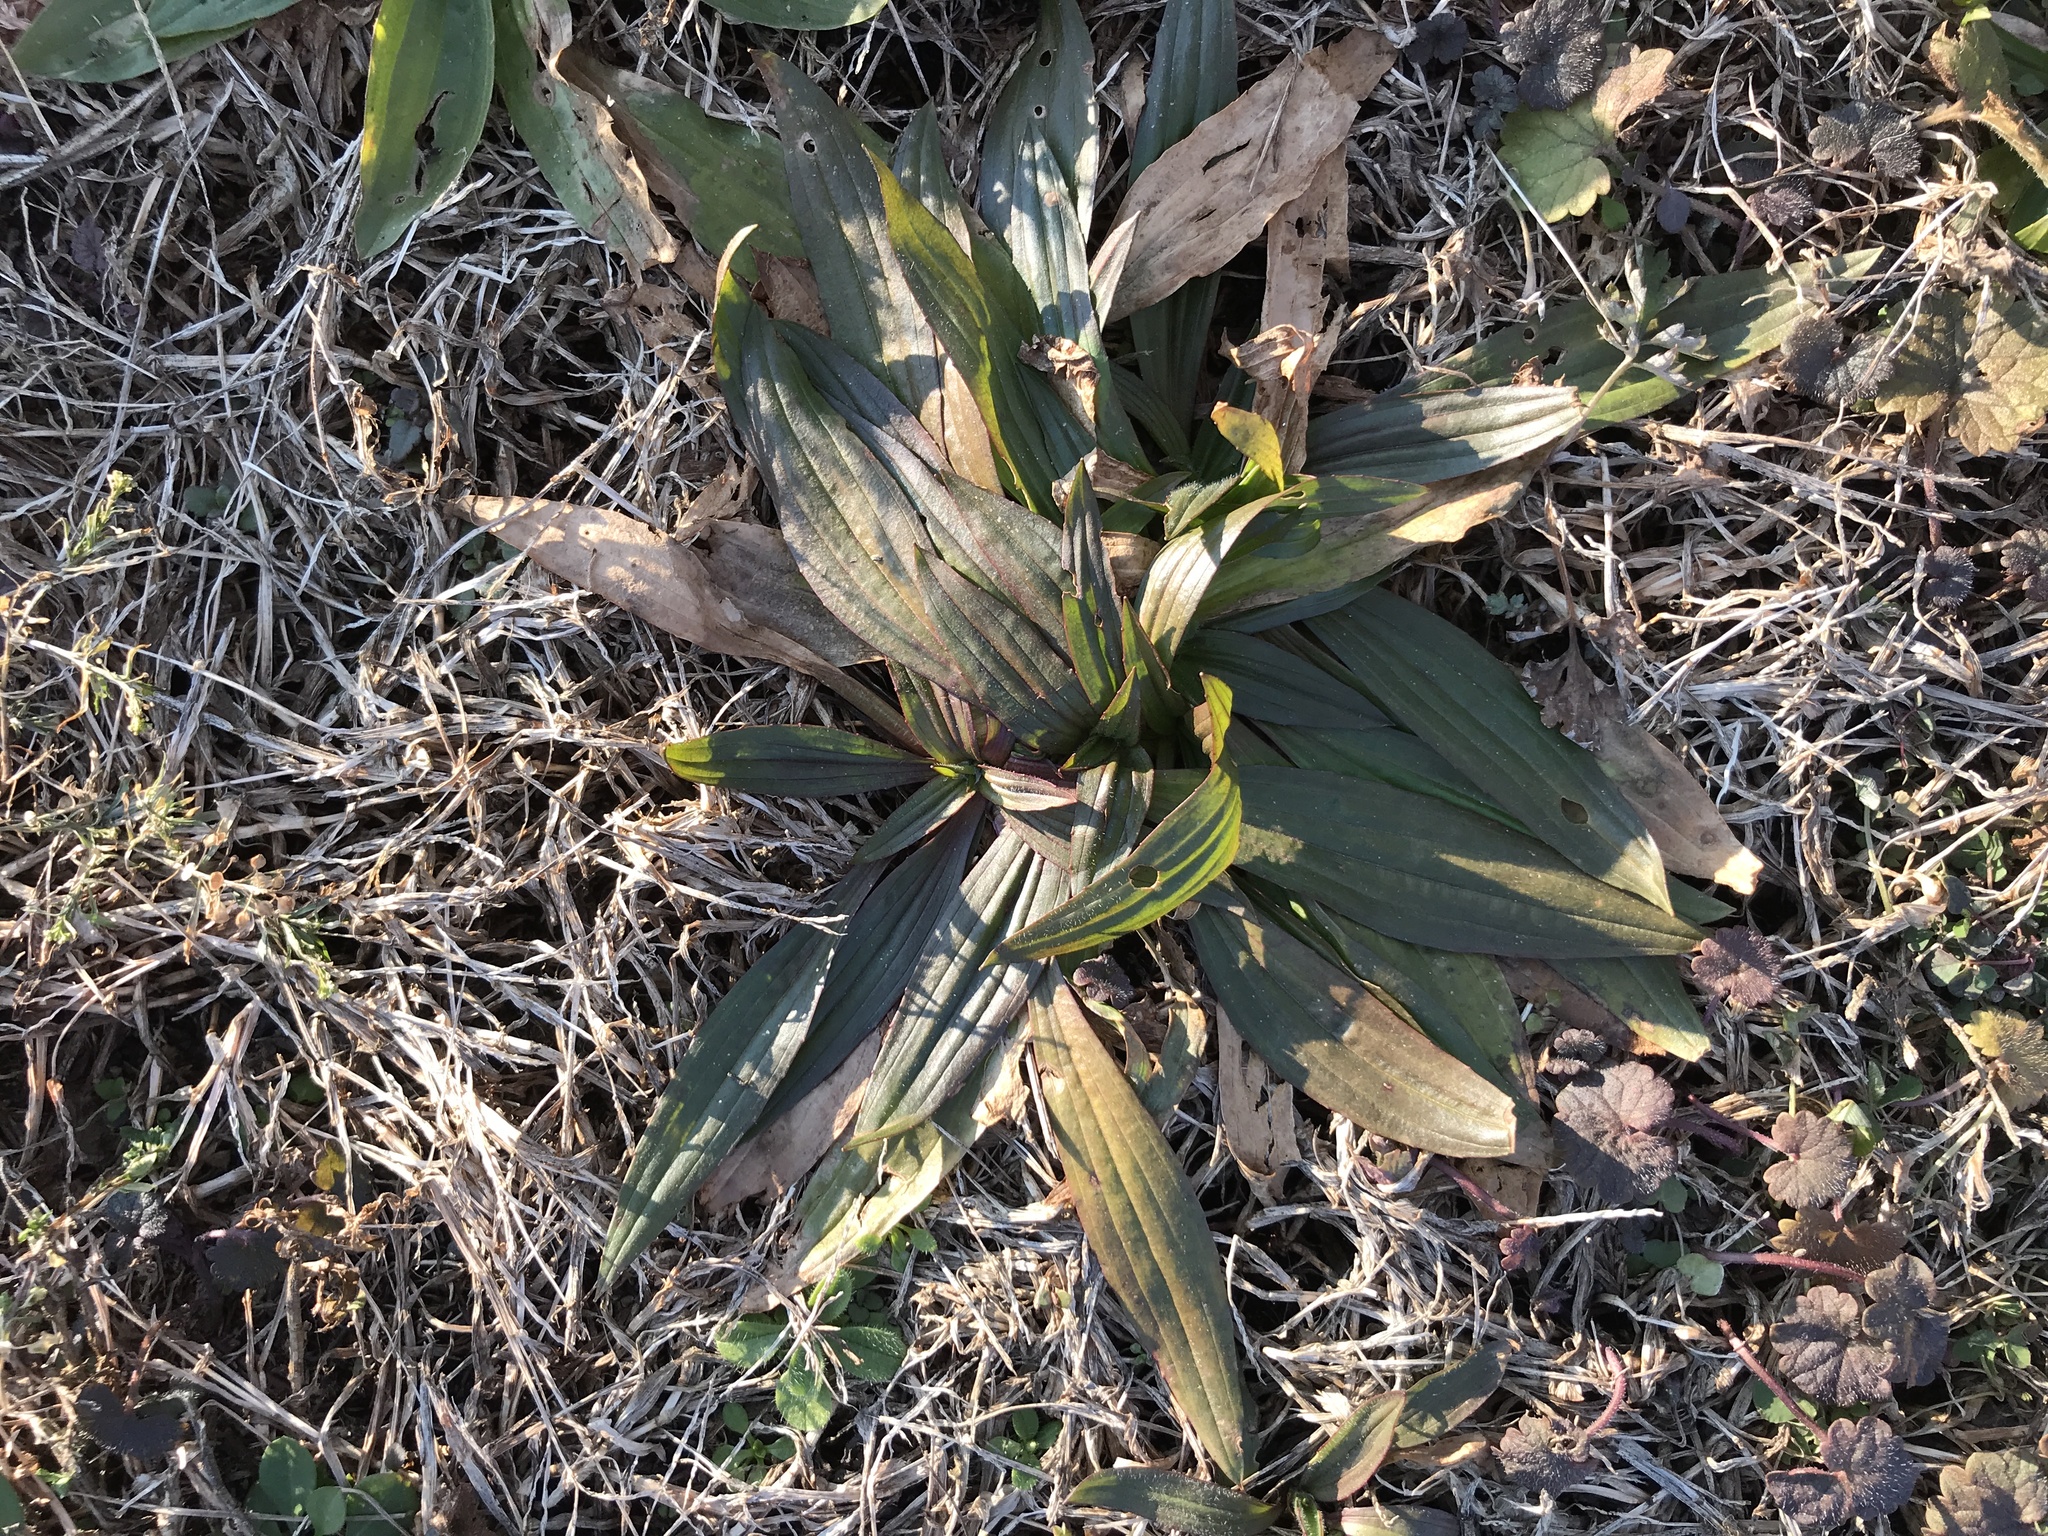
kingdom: Plantae
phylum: Tracheophyta
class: Magnoliopsida
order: Lamiales
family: Plantaginaceae
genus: Plantago
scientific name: Plantago lanceolata
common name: Ribwort plantain
